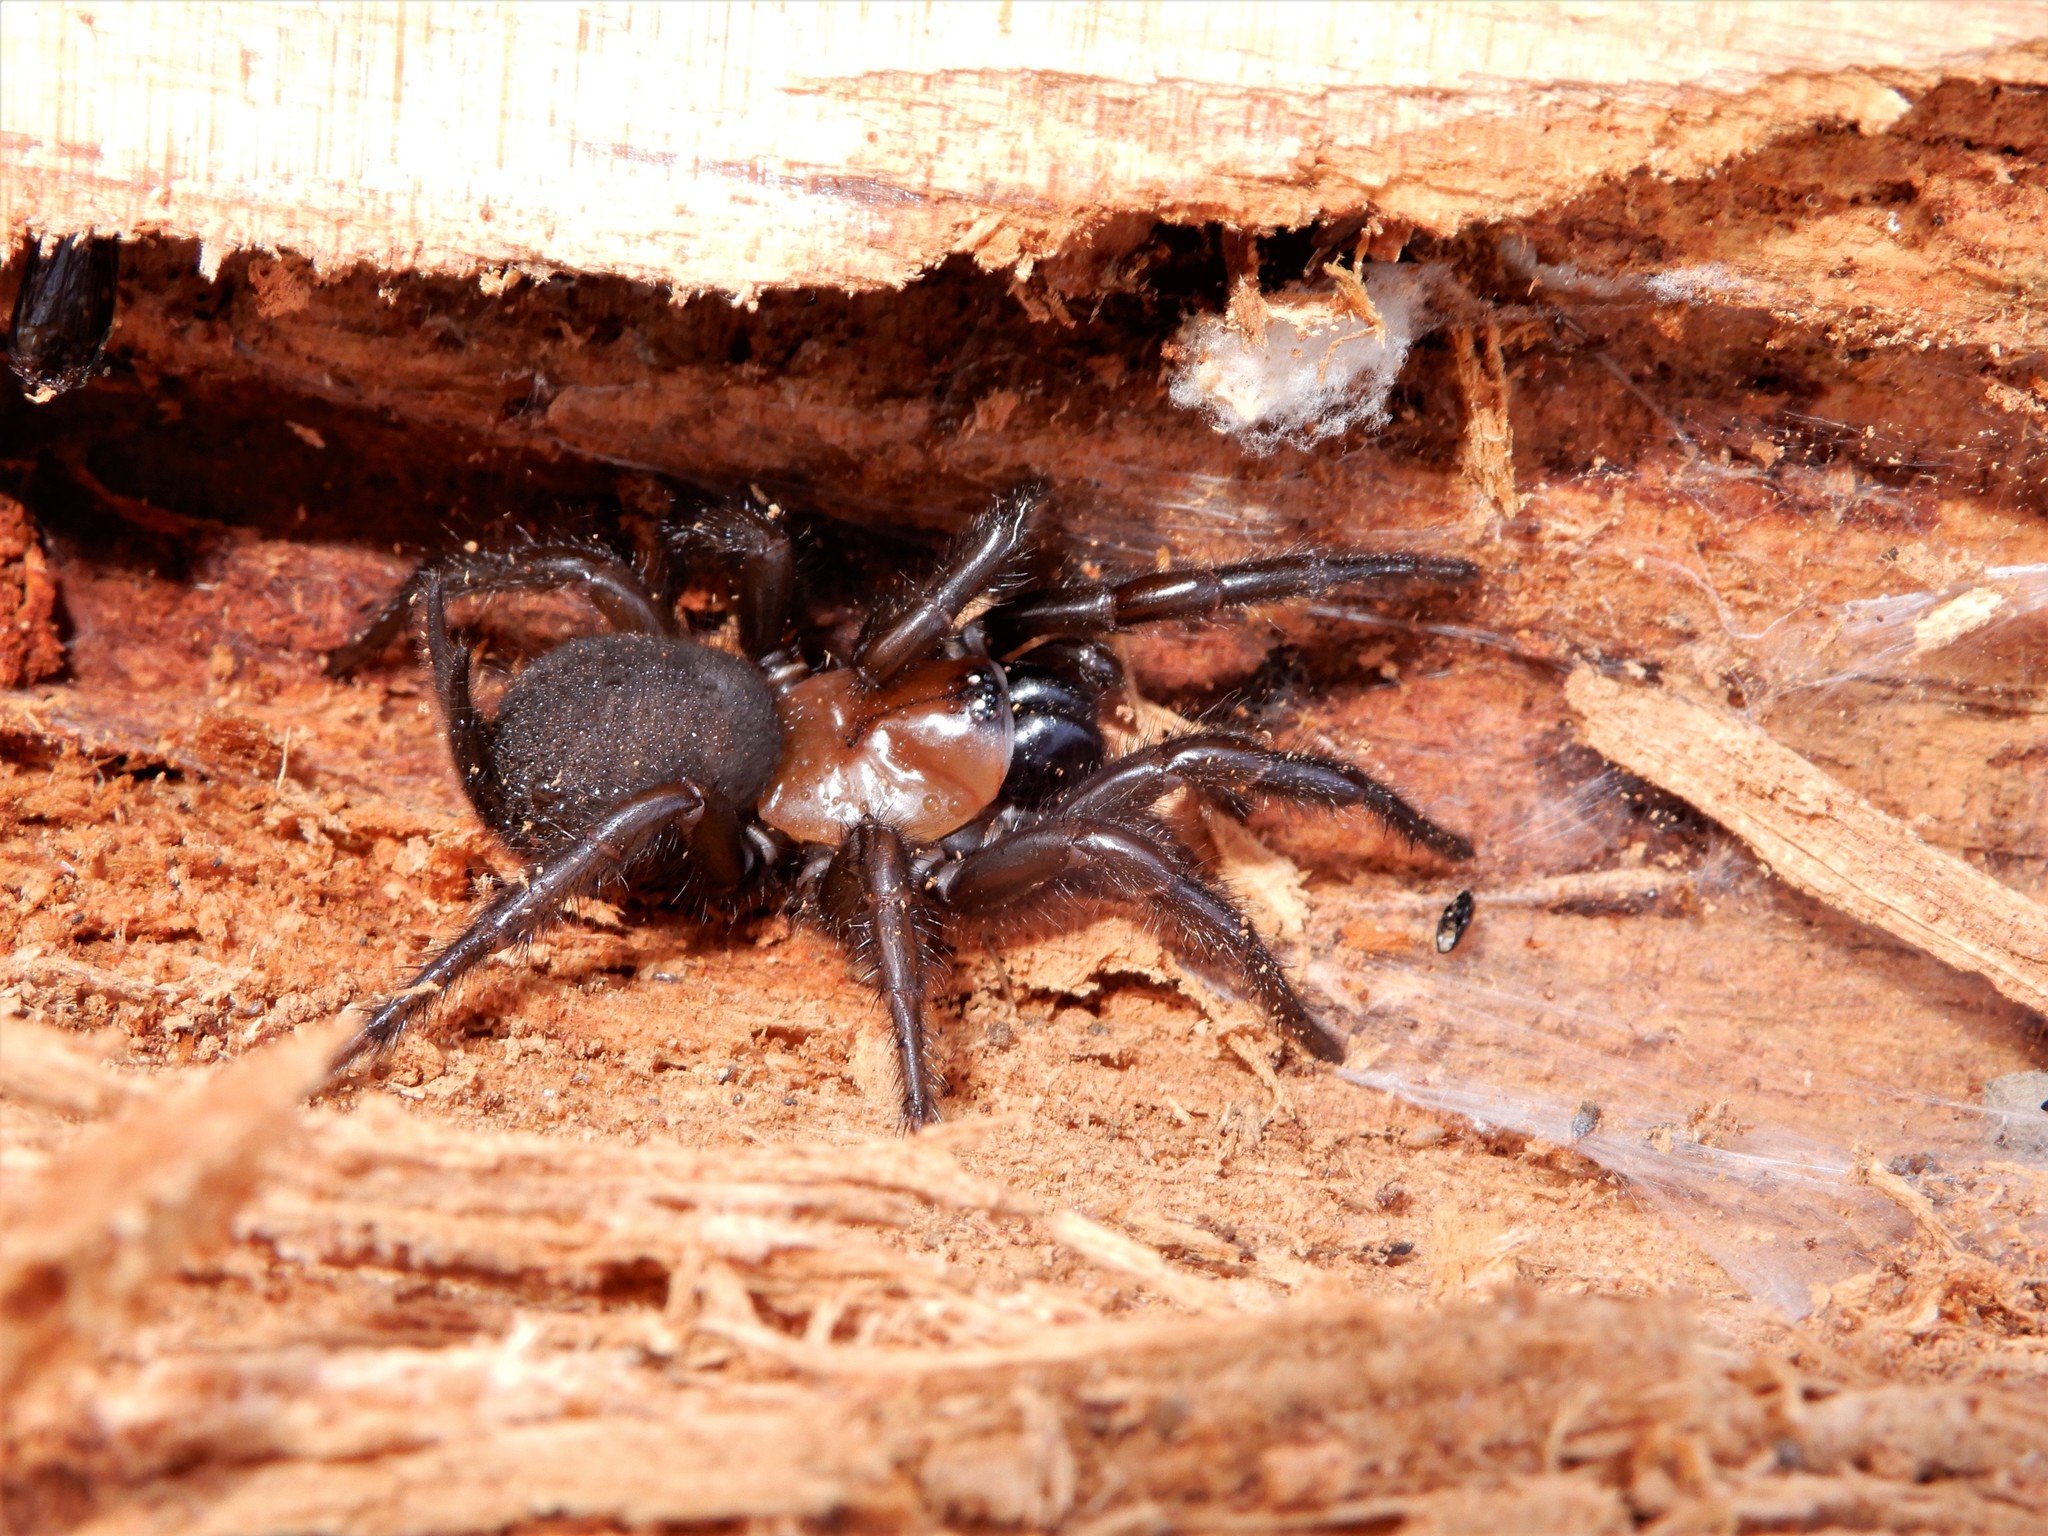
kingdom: Animalia
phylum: Arthropoda
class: Arachnida
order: Araneae
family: Porrhothelidae
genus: Porrhothele
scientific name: Porrhothele antipodiana
